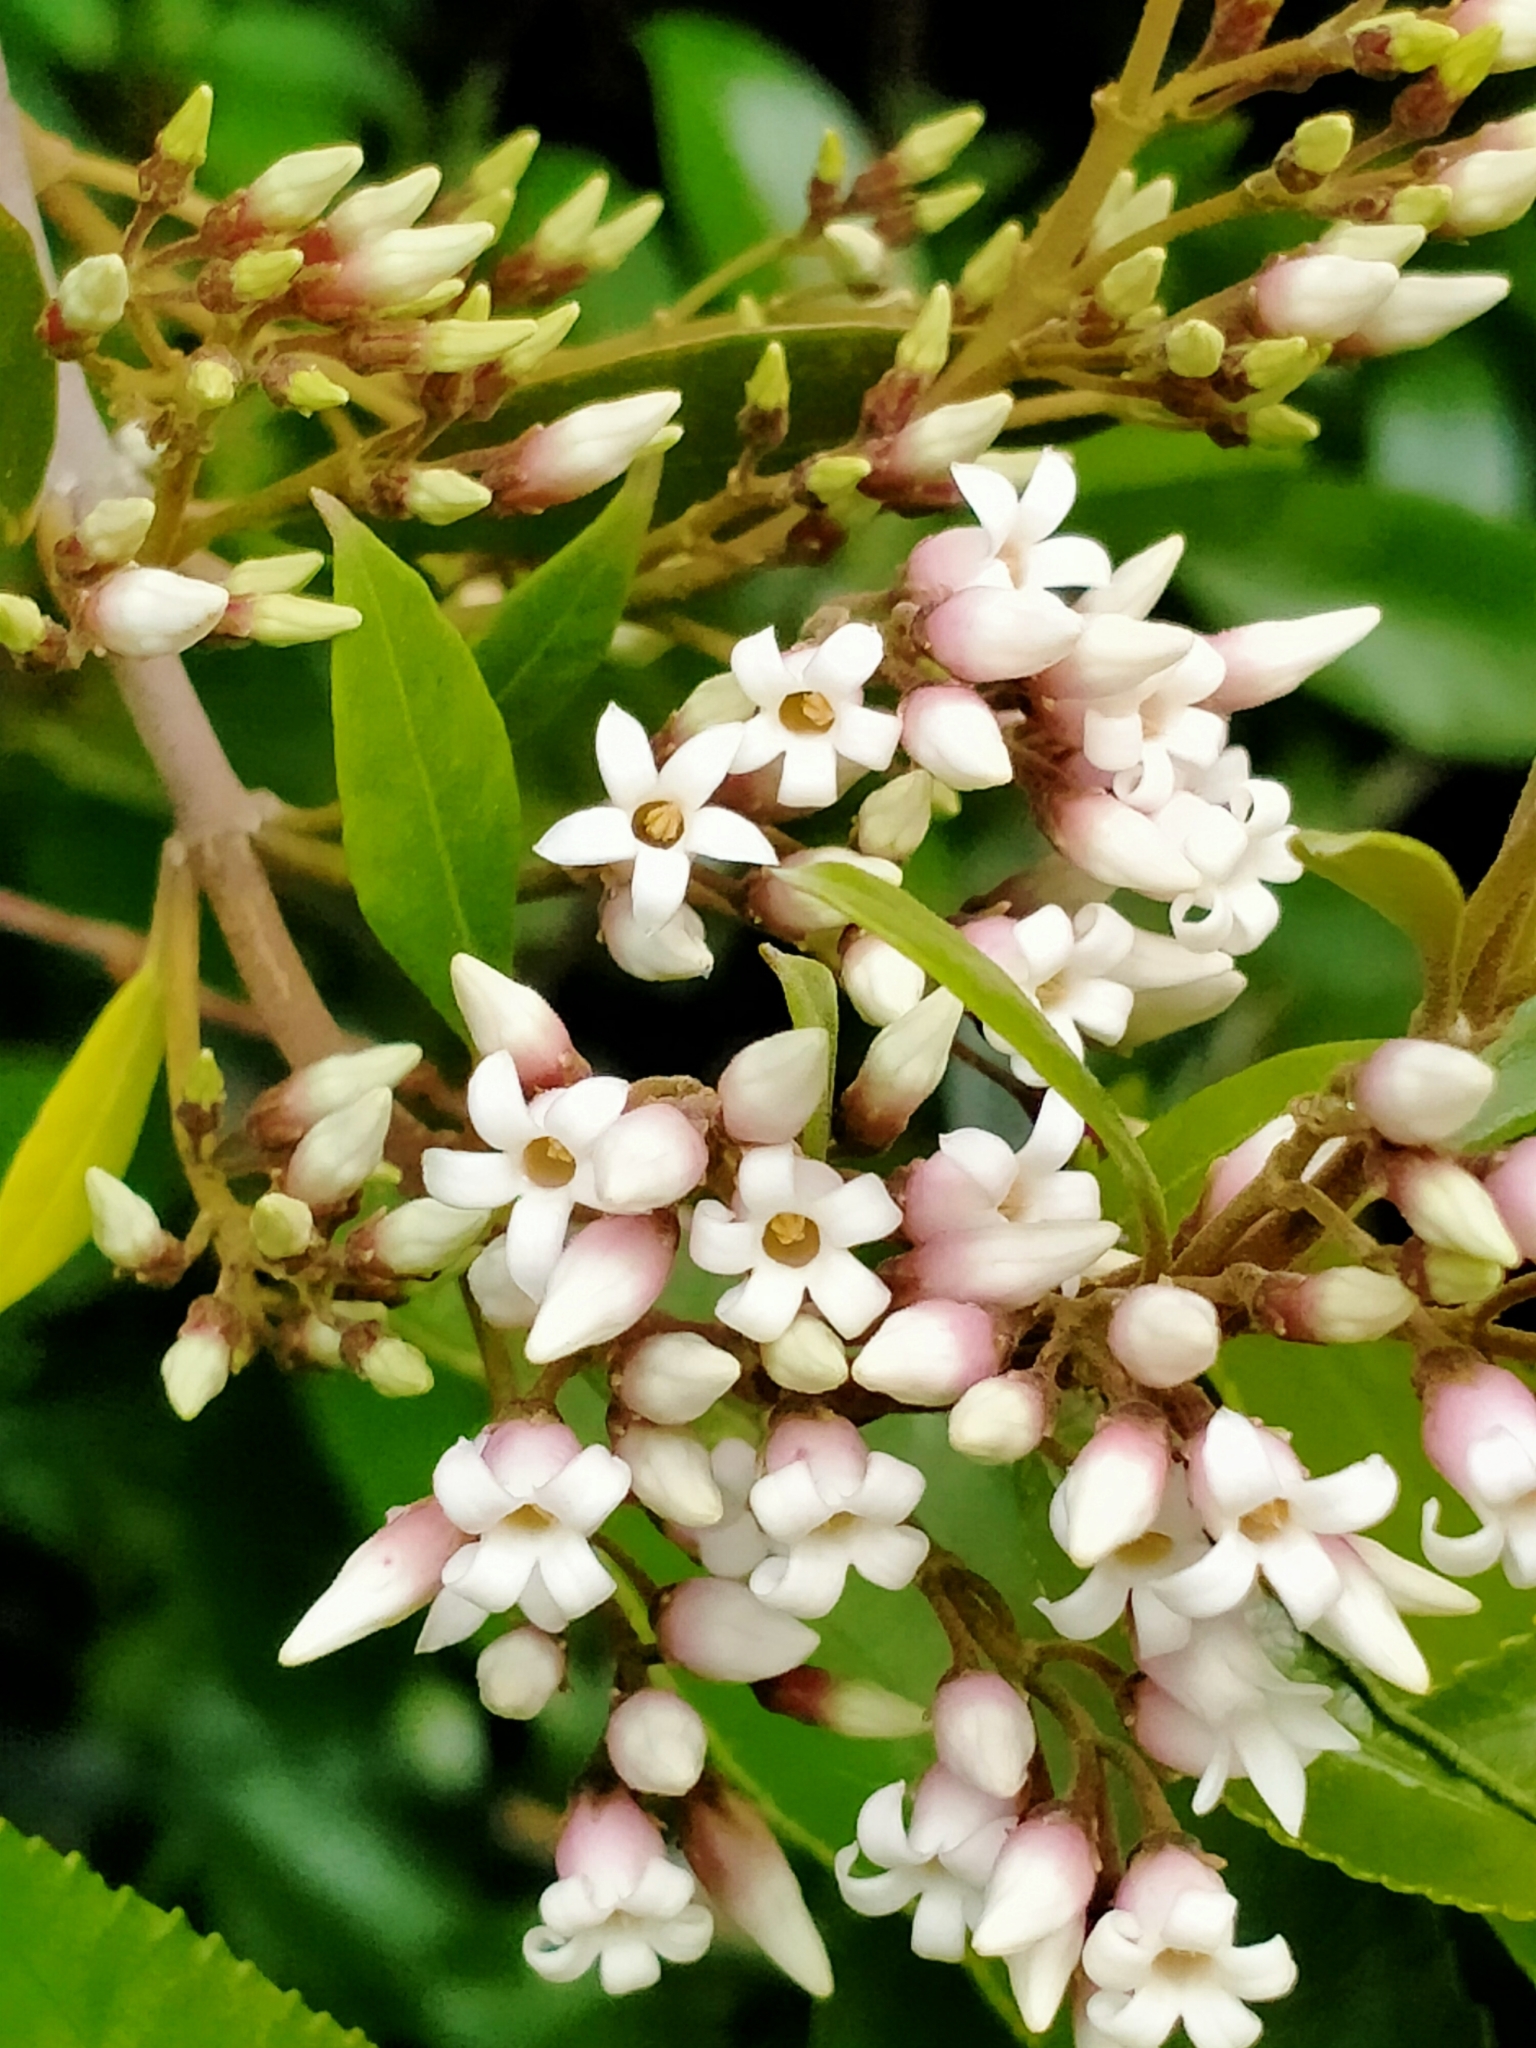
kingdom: Plantae
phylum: Tracheophyta
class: Magnoliopsida
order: Gentianales
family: Apocynaceae
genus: Parsonsia
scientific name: Parsonsia heterophylla
